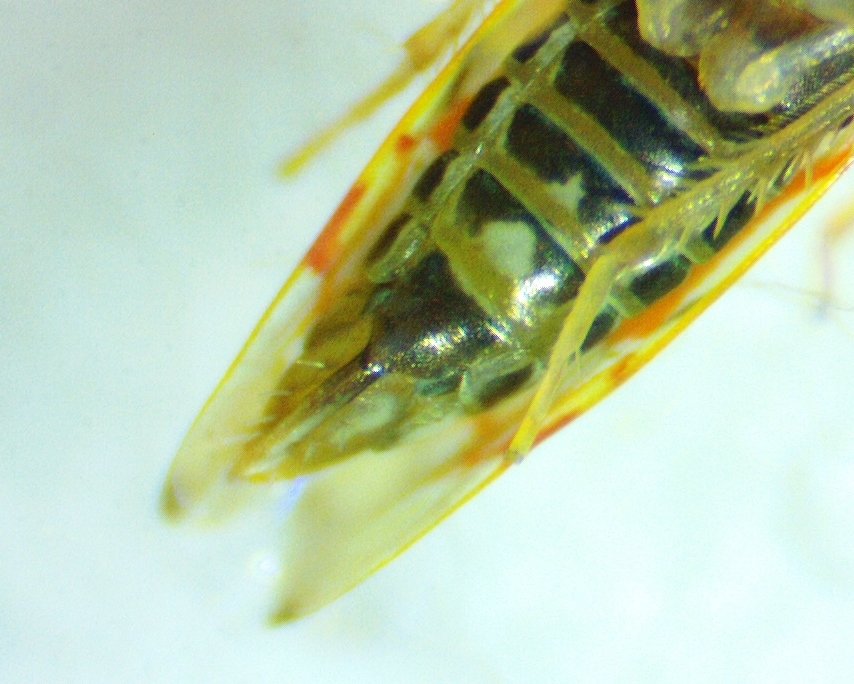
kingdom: Animalia
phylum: Arthropoda
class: Insecta
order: Hemiptera
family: Cicadellidae
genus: Erythroneura
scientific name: Erythroneura rubrella
